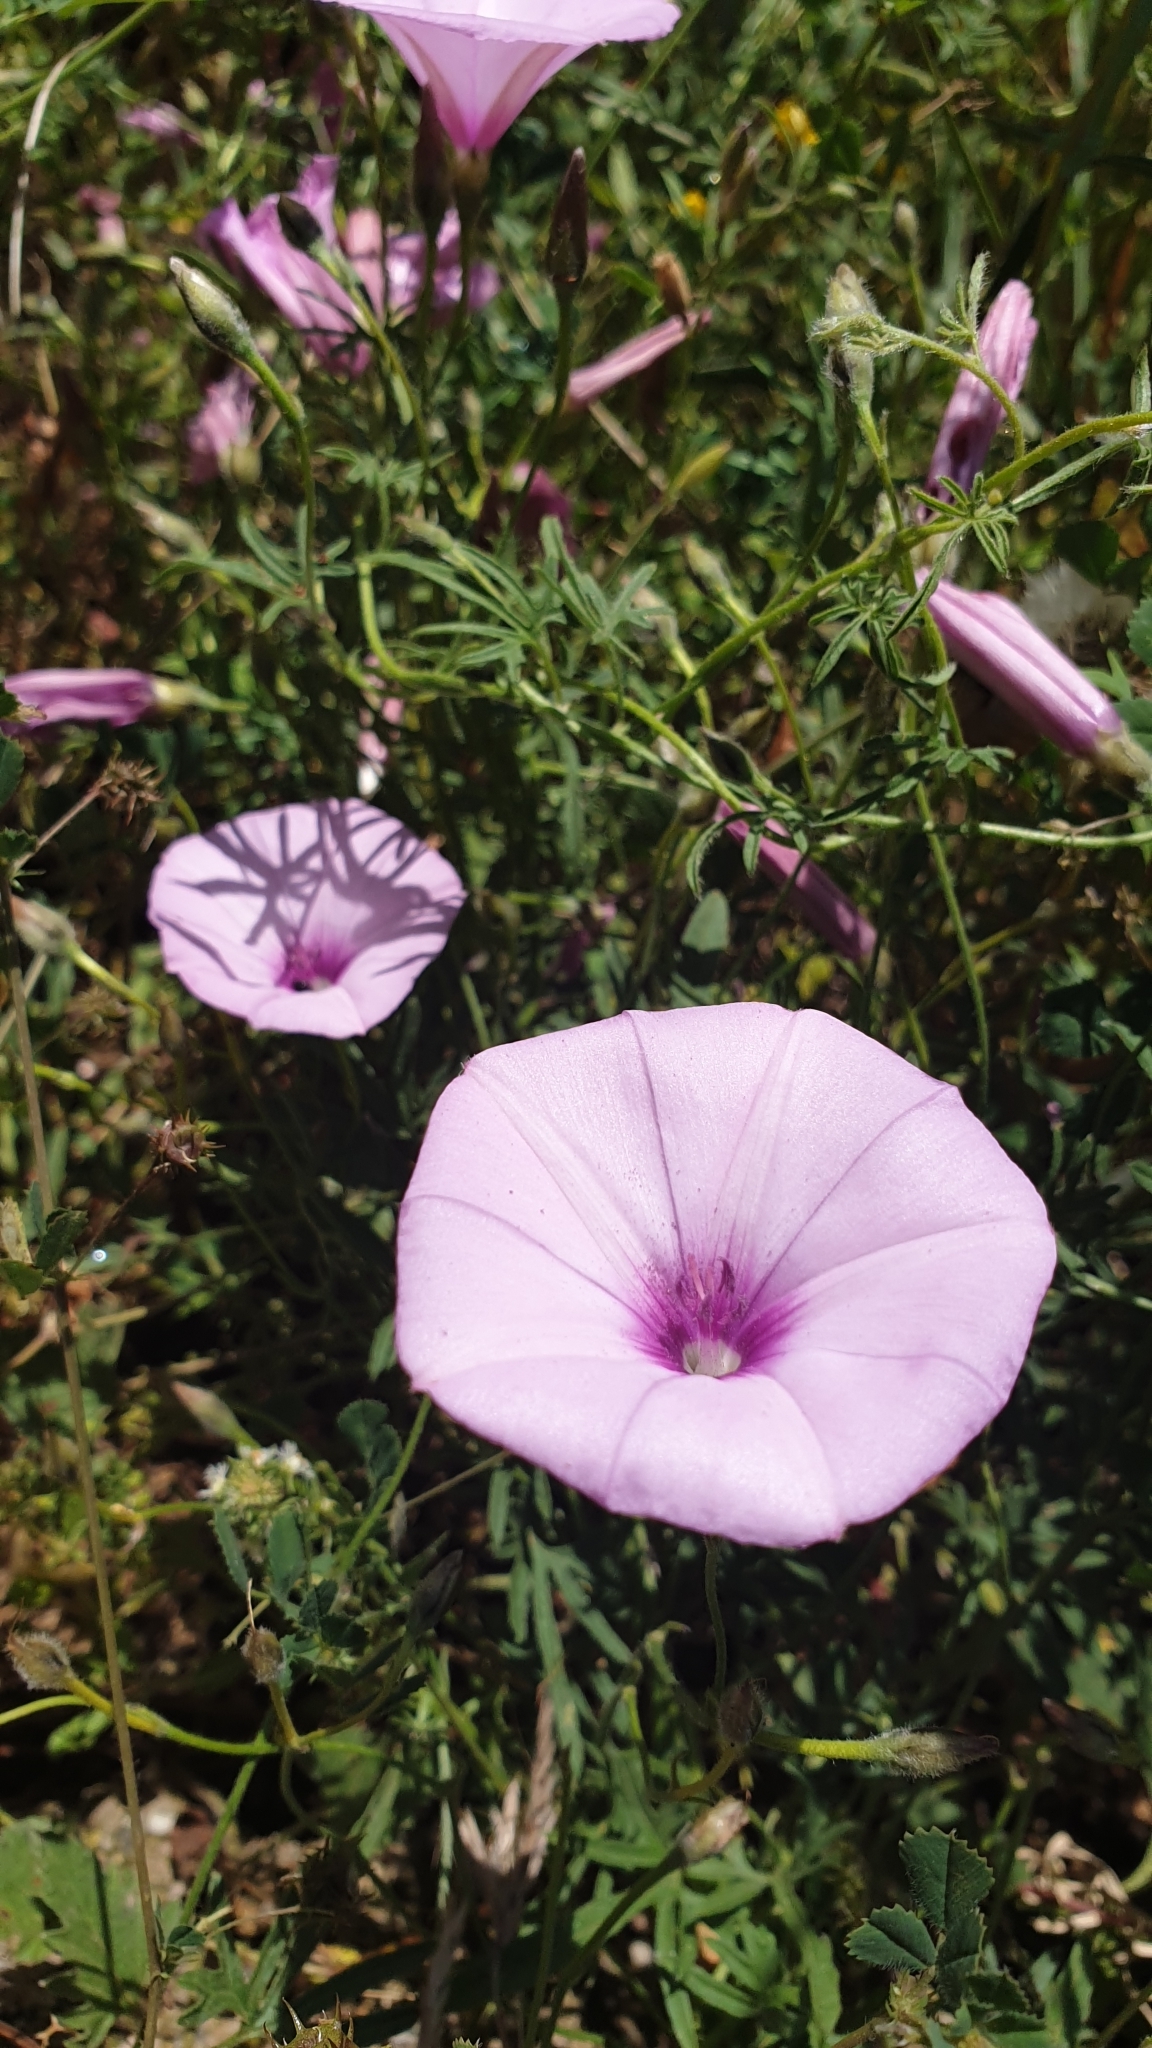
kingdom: Plantae
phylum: Tracheophyta
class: Magnoliopsida
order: Solanales
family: Convolvulaceae
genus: Convolvulus
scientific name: Convolvulus althaeoides
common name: Mallow bindweed
